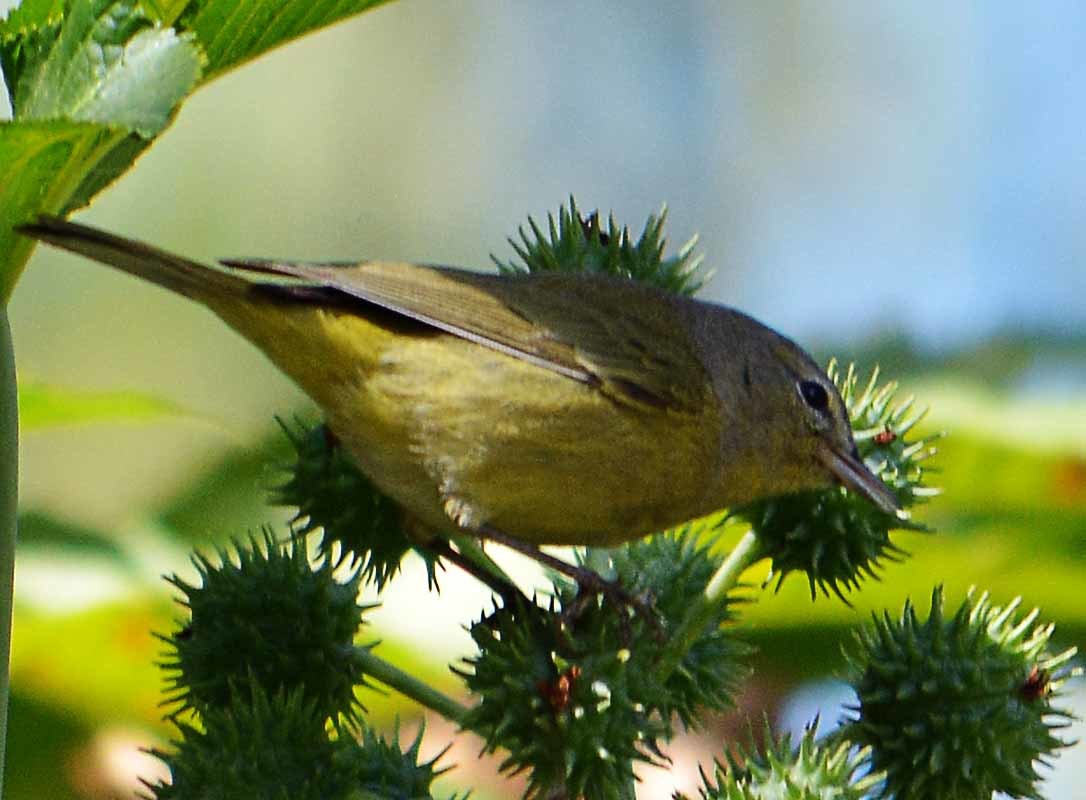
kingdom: Animalia
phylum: Chordata
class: Aves
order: Passeriformes
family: Parulidae
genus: Leiothlypis
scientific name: Leiothlypis celata
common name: Orange-crowned warbler
